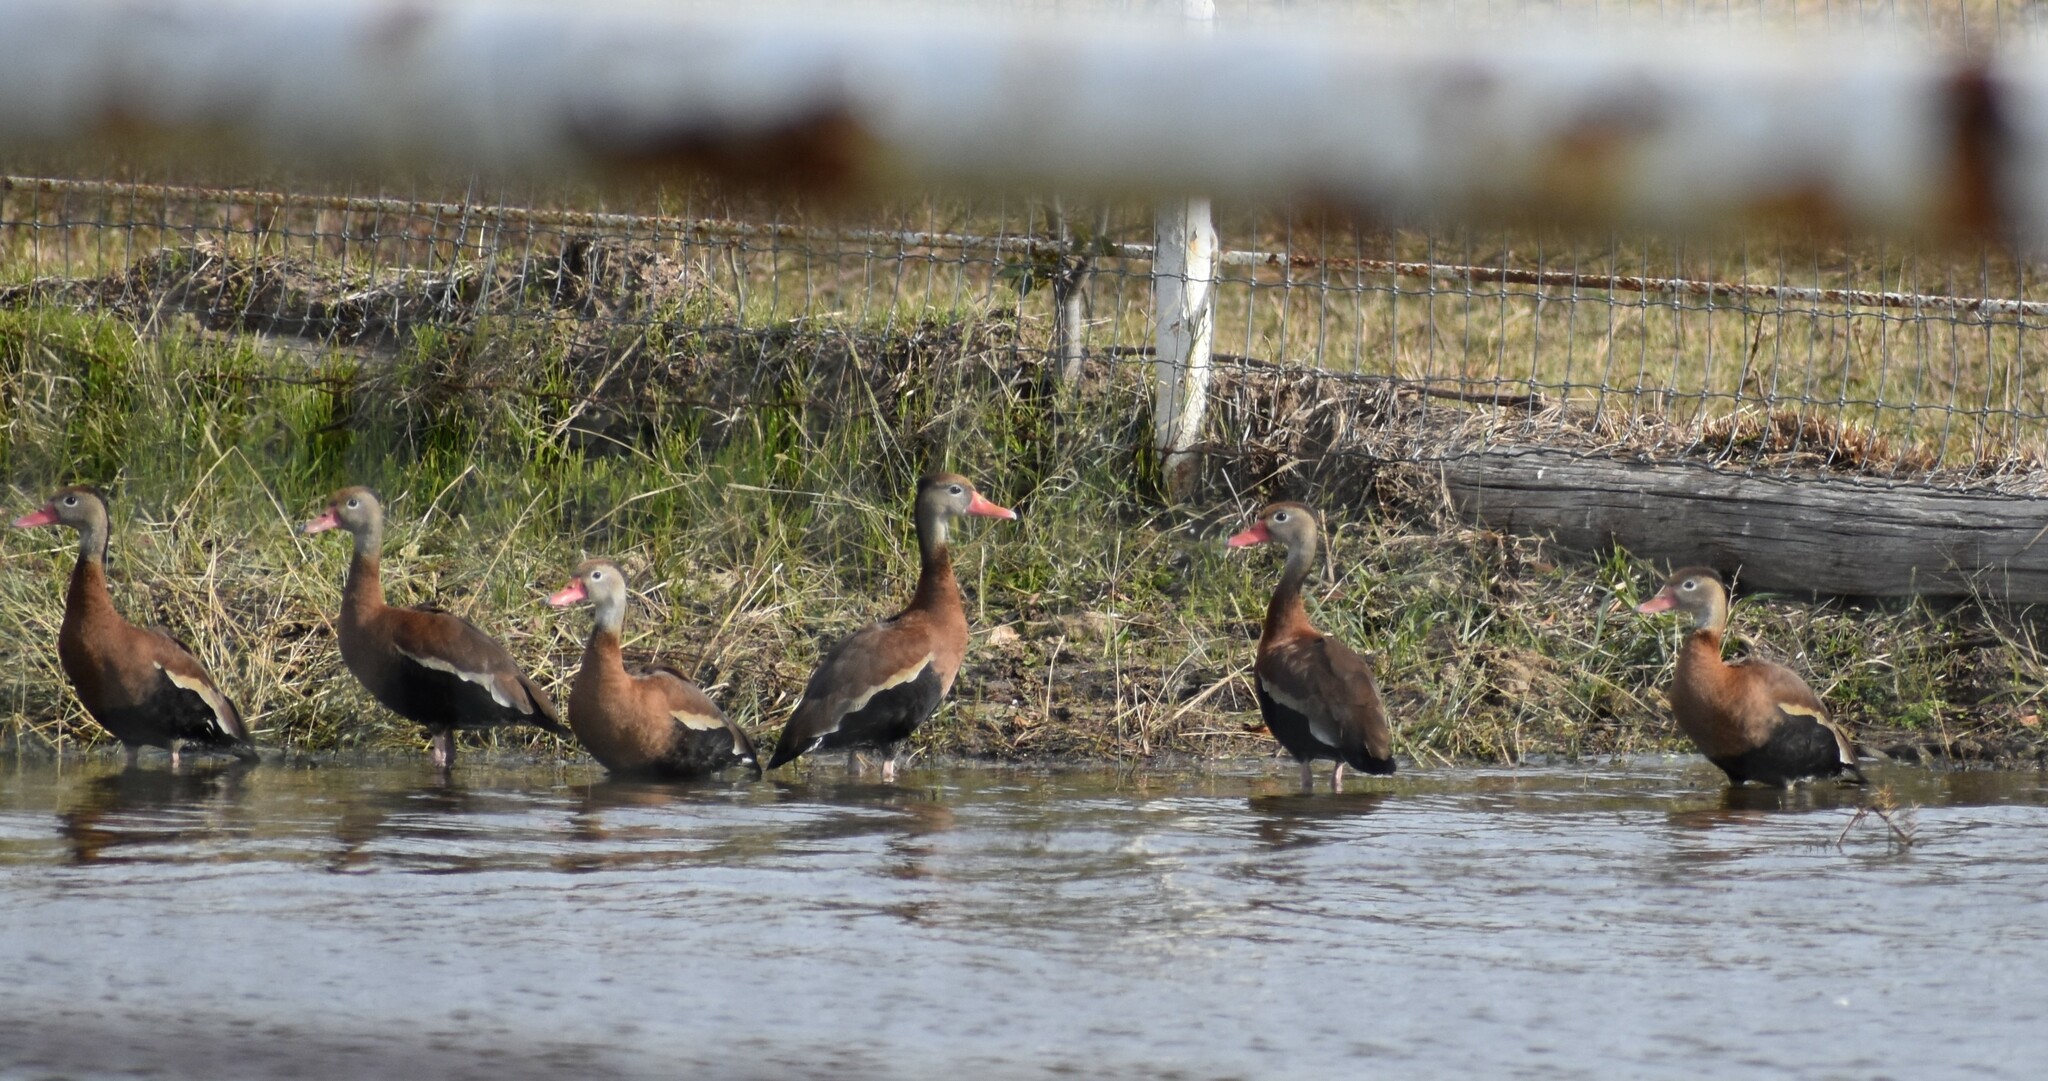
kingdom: Animalia
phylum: Chordata
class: Aves
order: Anseriformes
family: Anatidae
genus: Dendrocygna
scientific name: Dendrocygna autumnalis
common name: Black-bellied whistling duck
